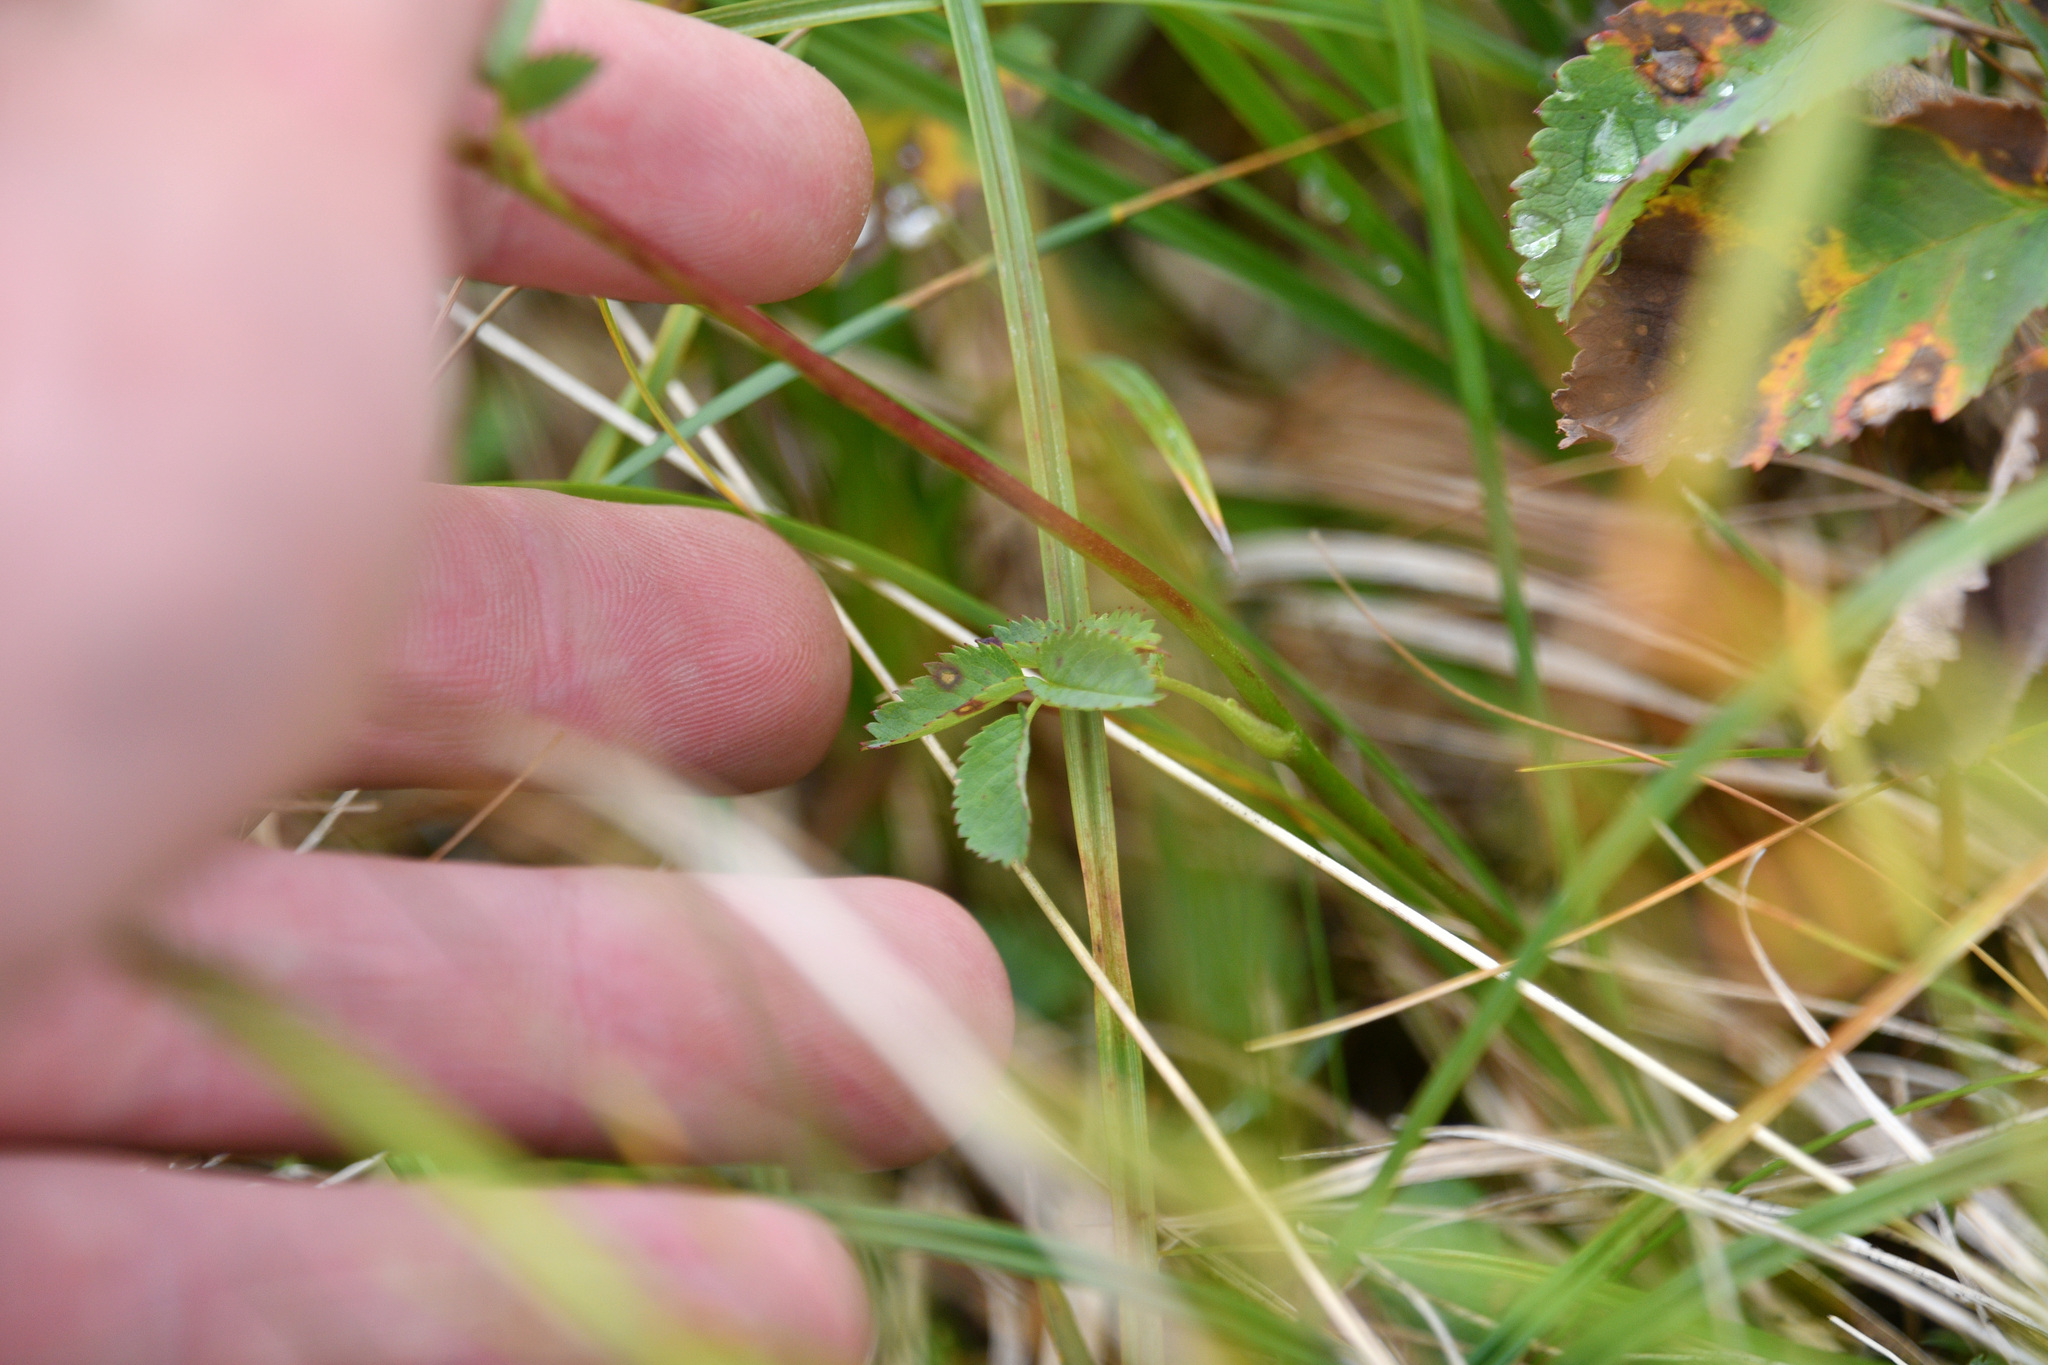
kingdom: Plantae
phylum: Tracheophyta
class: Magnoliopsida
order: Rosales
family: Rosaceae
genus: Sanguisorba
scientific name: Sanguisorba stipulata
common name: Sitka burnet
